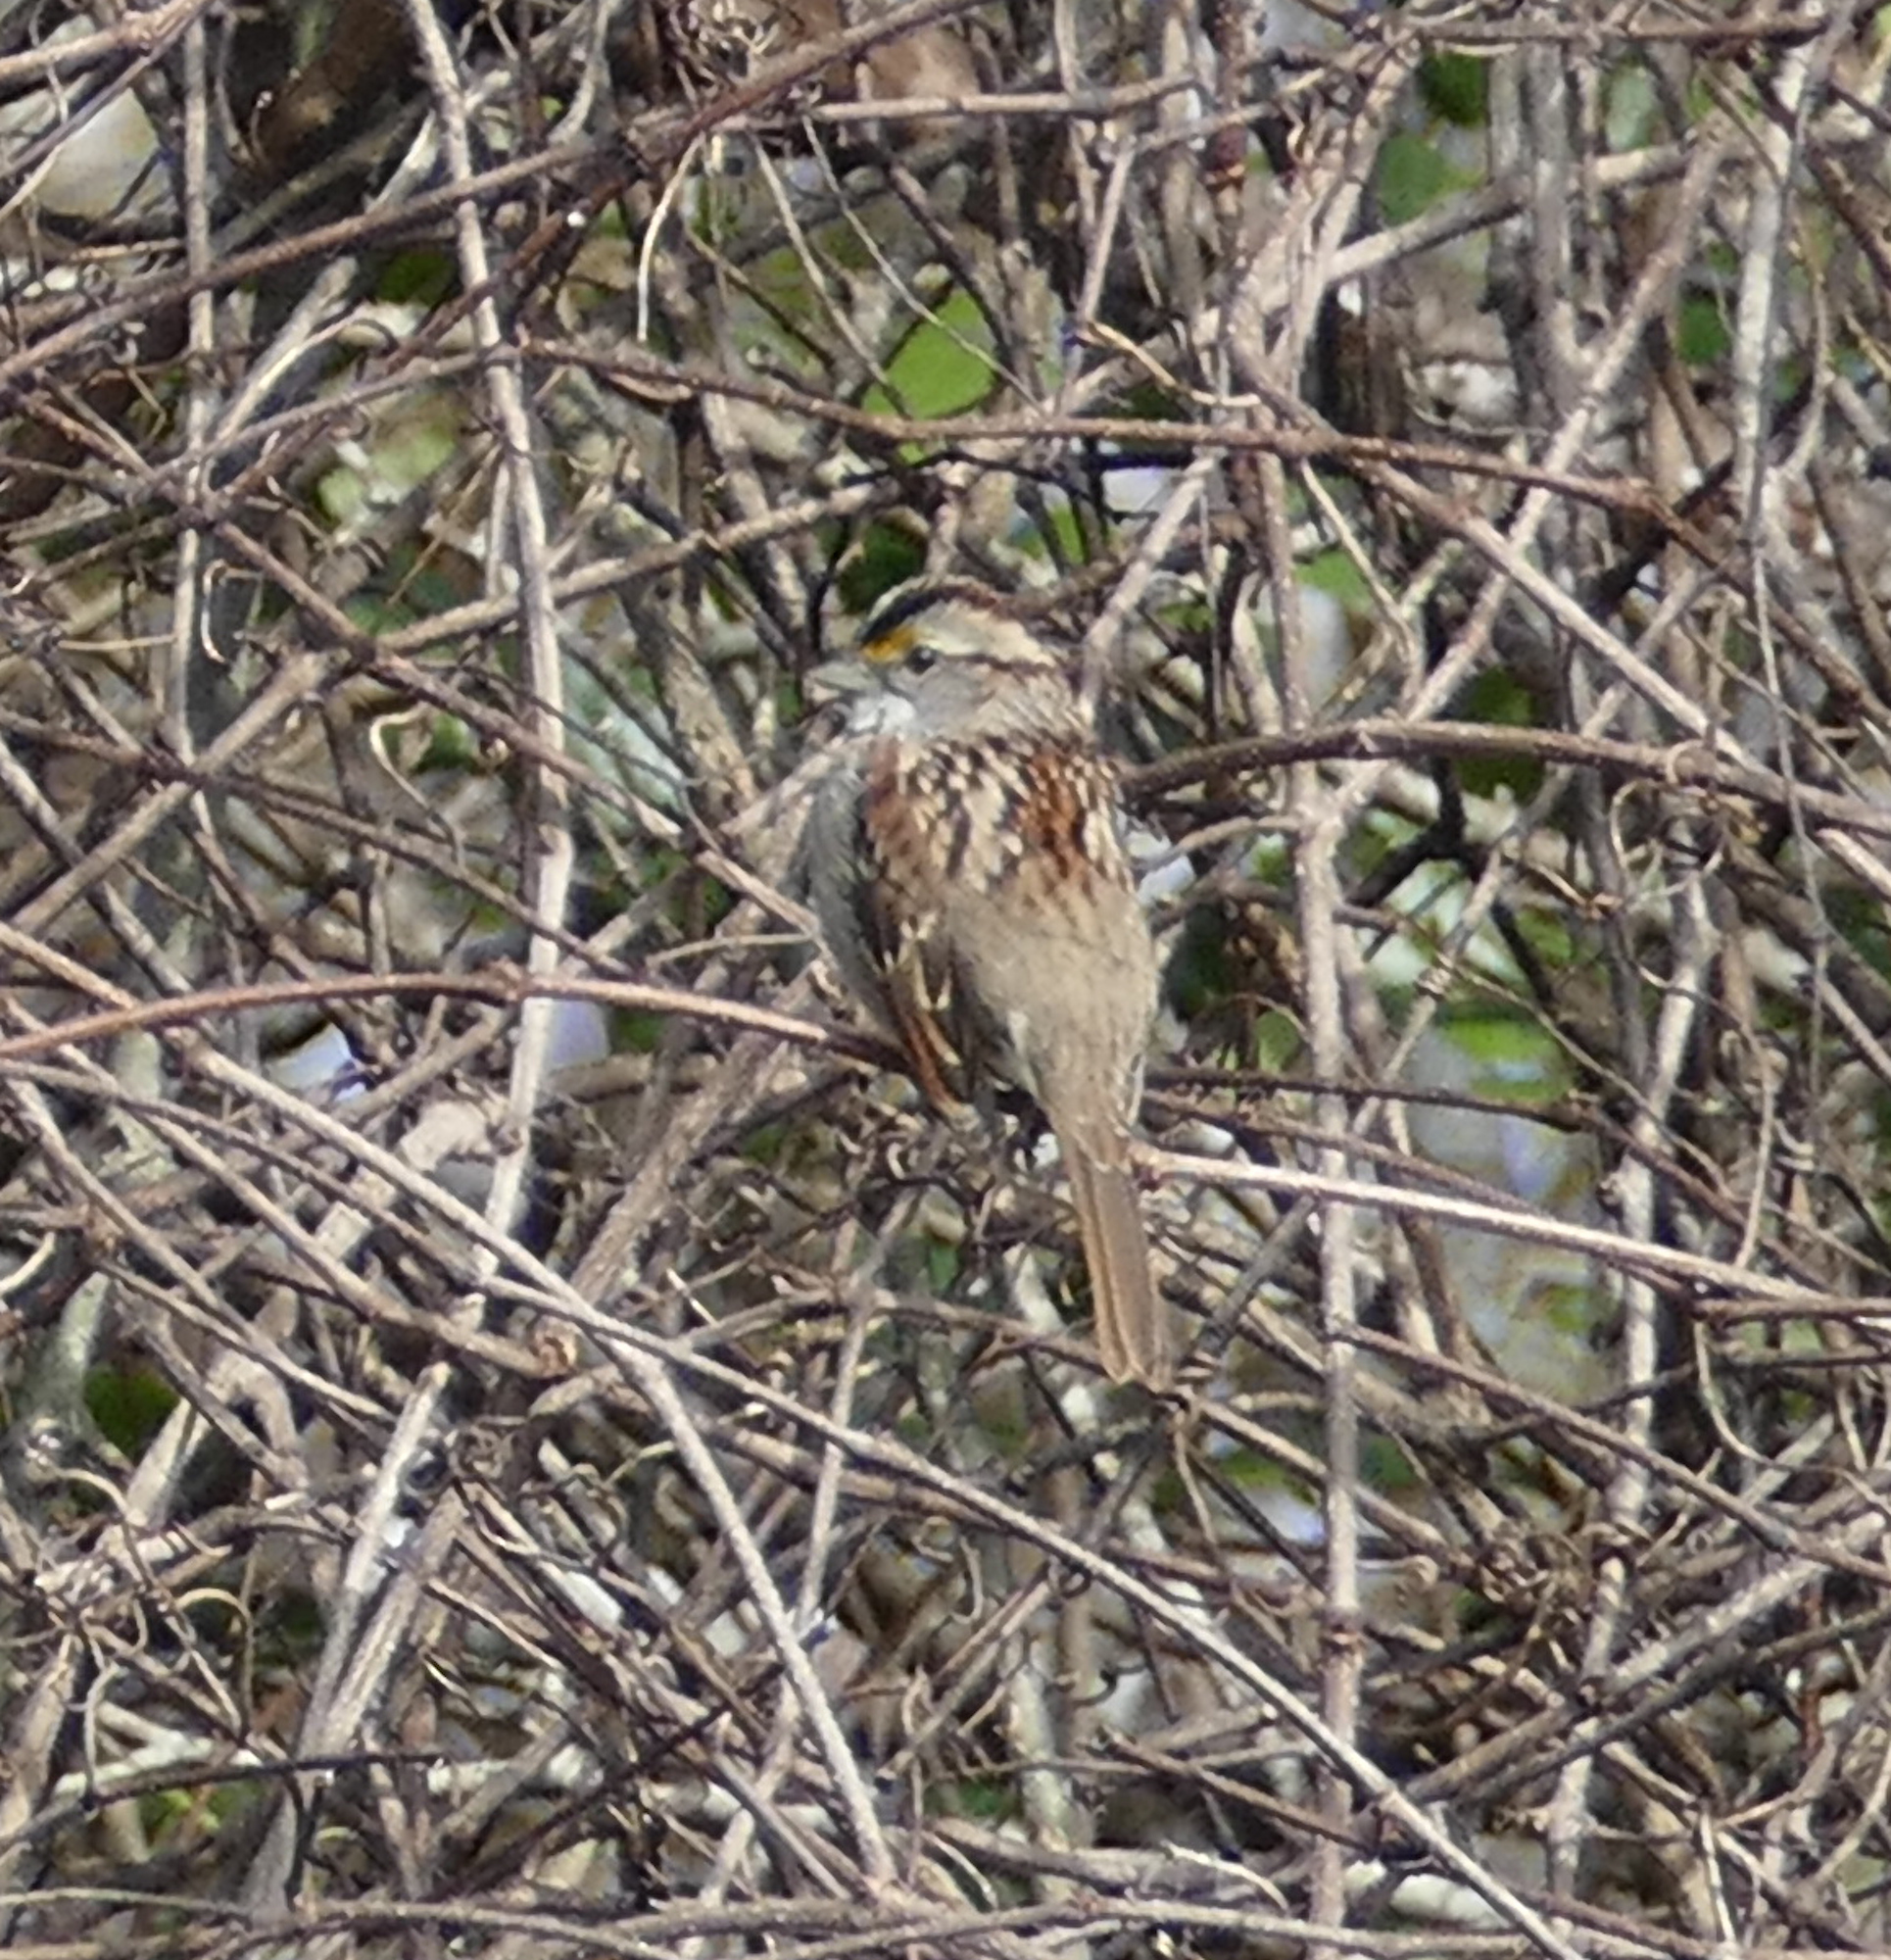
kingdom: Animalia
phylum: Chordata
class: Aves
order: Passeriformes
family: Passerellidae
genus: Zonotrichia
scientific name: Zonotrichia albicollis
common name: White-throated sparrow
